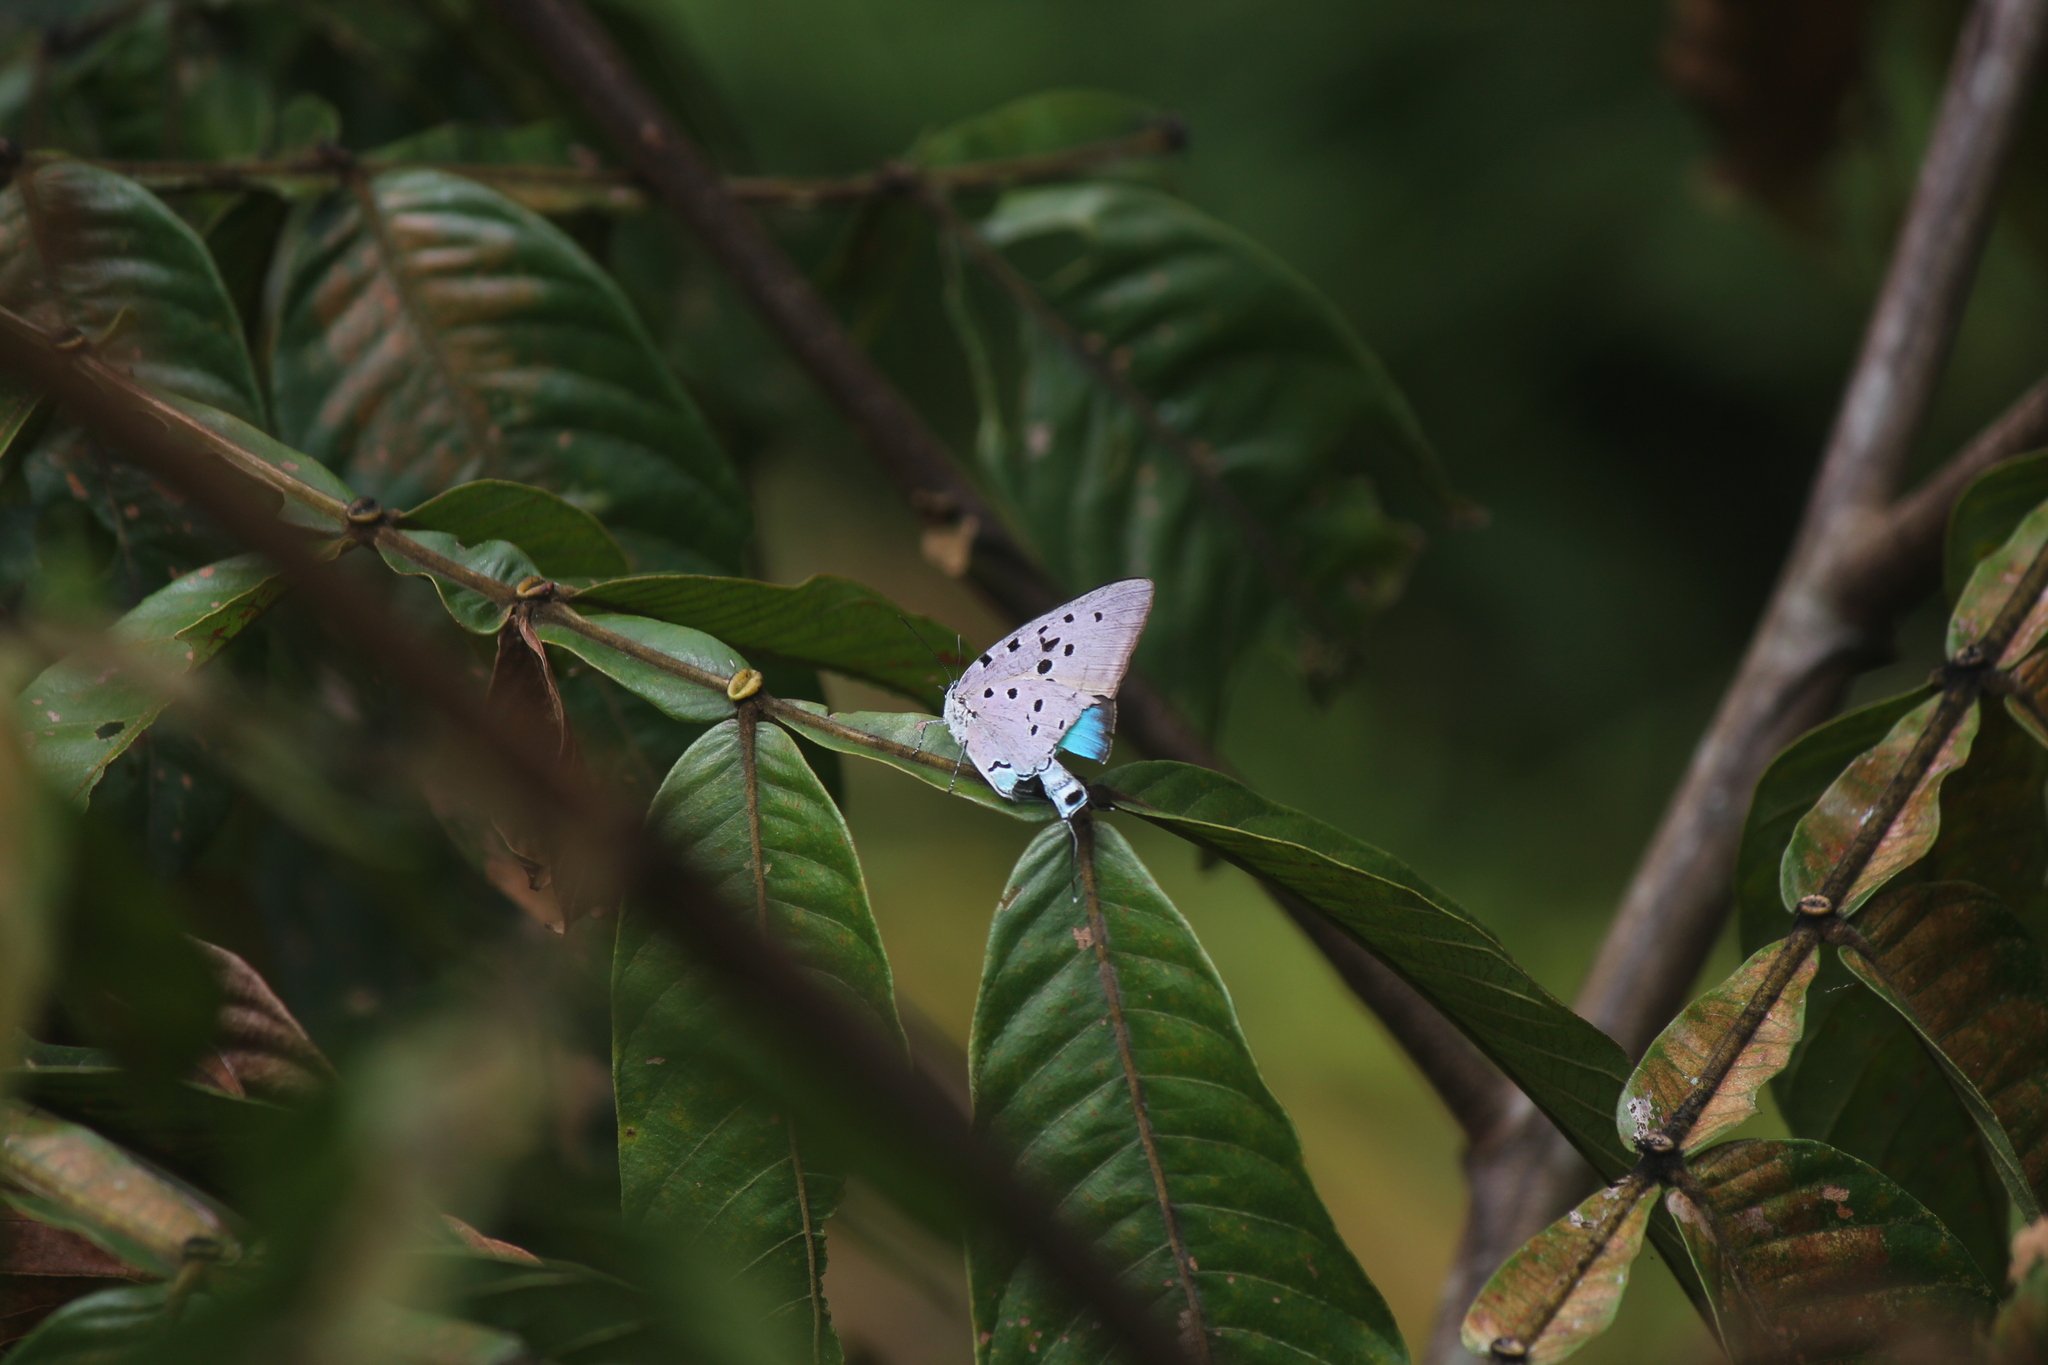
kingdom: Animalia
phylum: Arthropoda
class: Insecta
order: Lepidoptera
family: Lycaenidae
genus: Pseudolycaena
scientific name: Pseudolycaena marsyas
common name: Marsyas hairstreak
